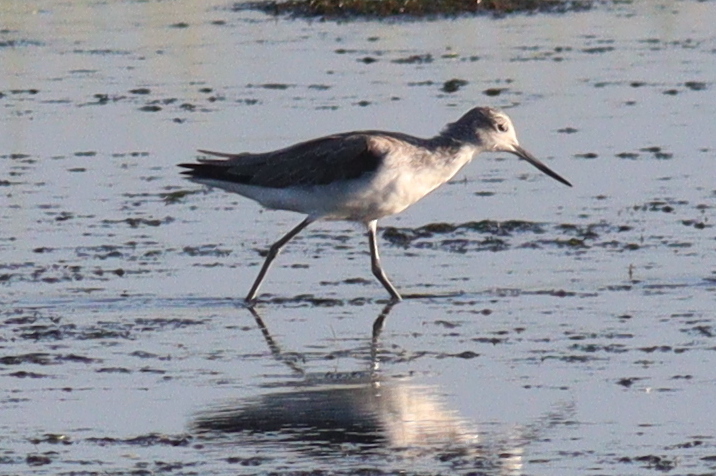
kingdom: Animalia
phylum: Chordata
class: Aves
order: Charadriiformes
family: Scolopacidae
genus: Tringa
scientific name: Tringa nebularia
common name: Common greenshank
